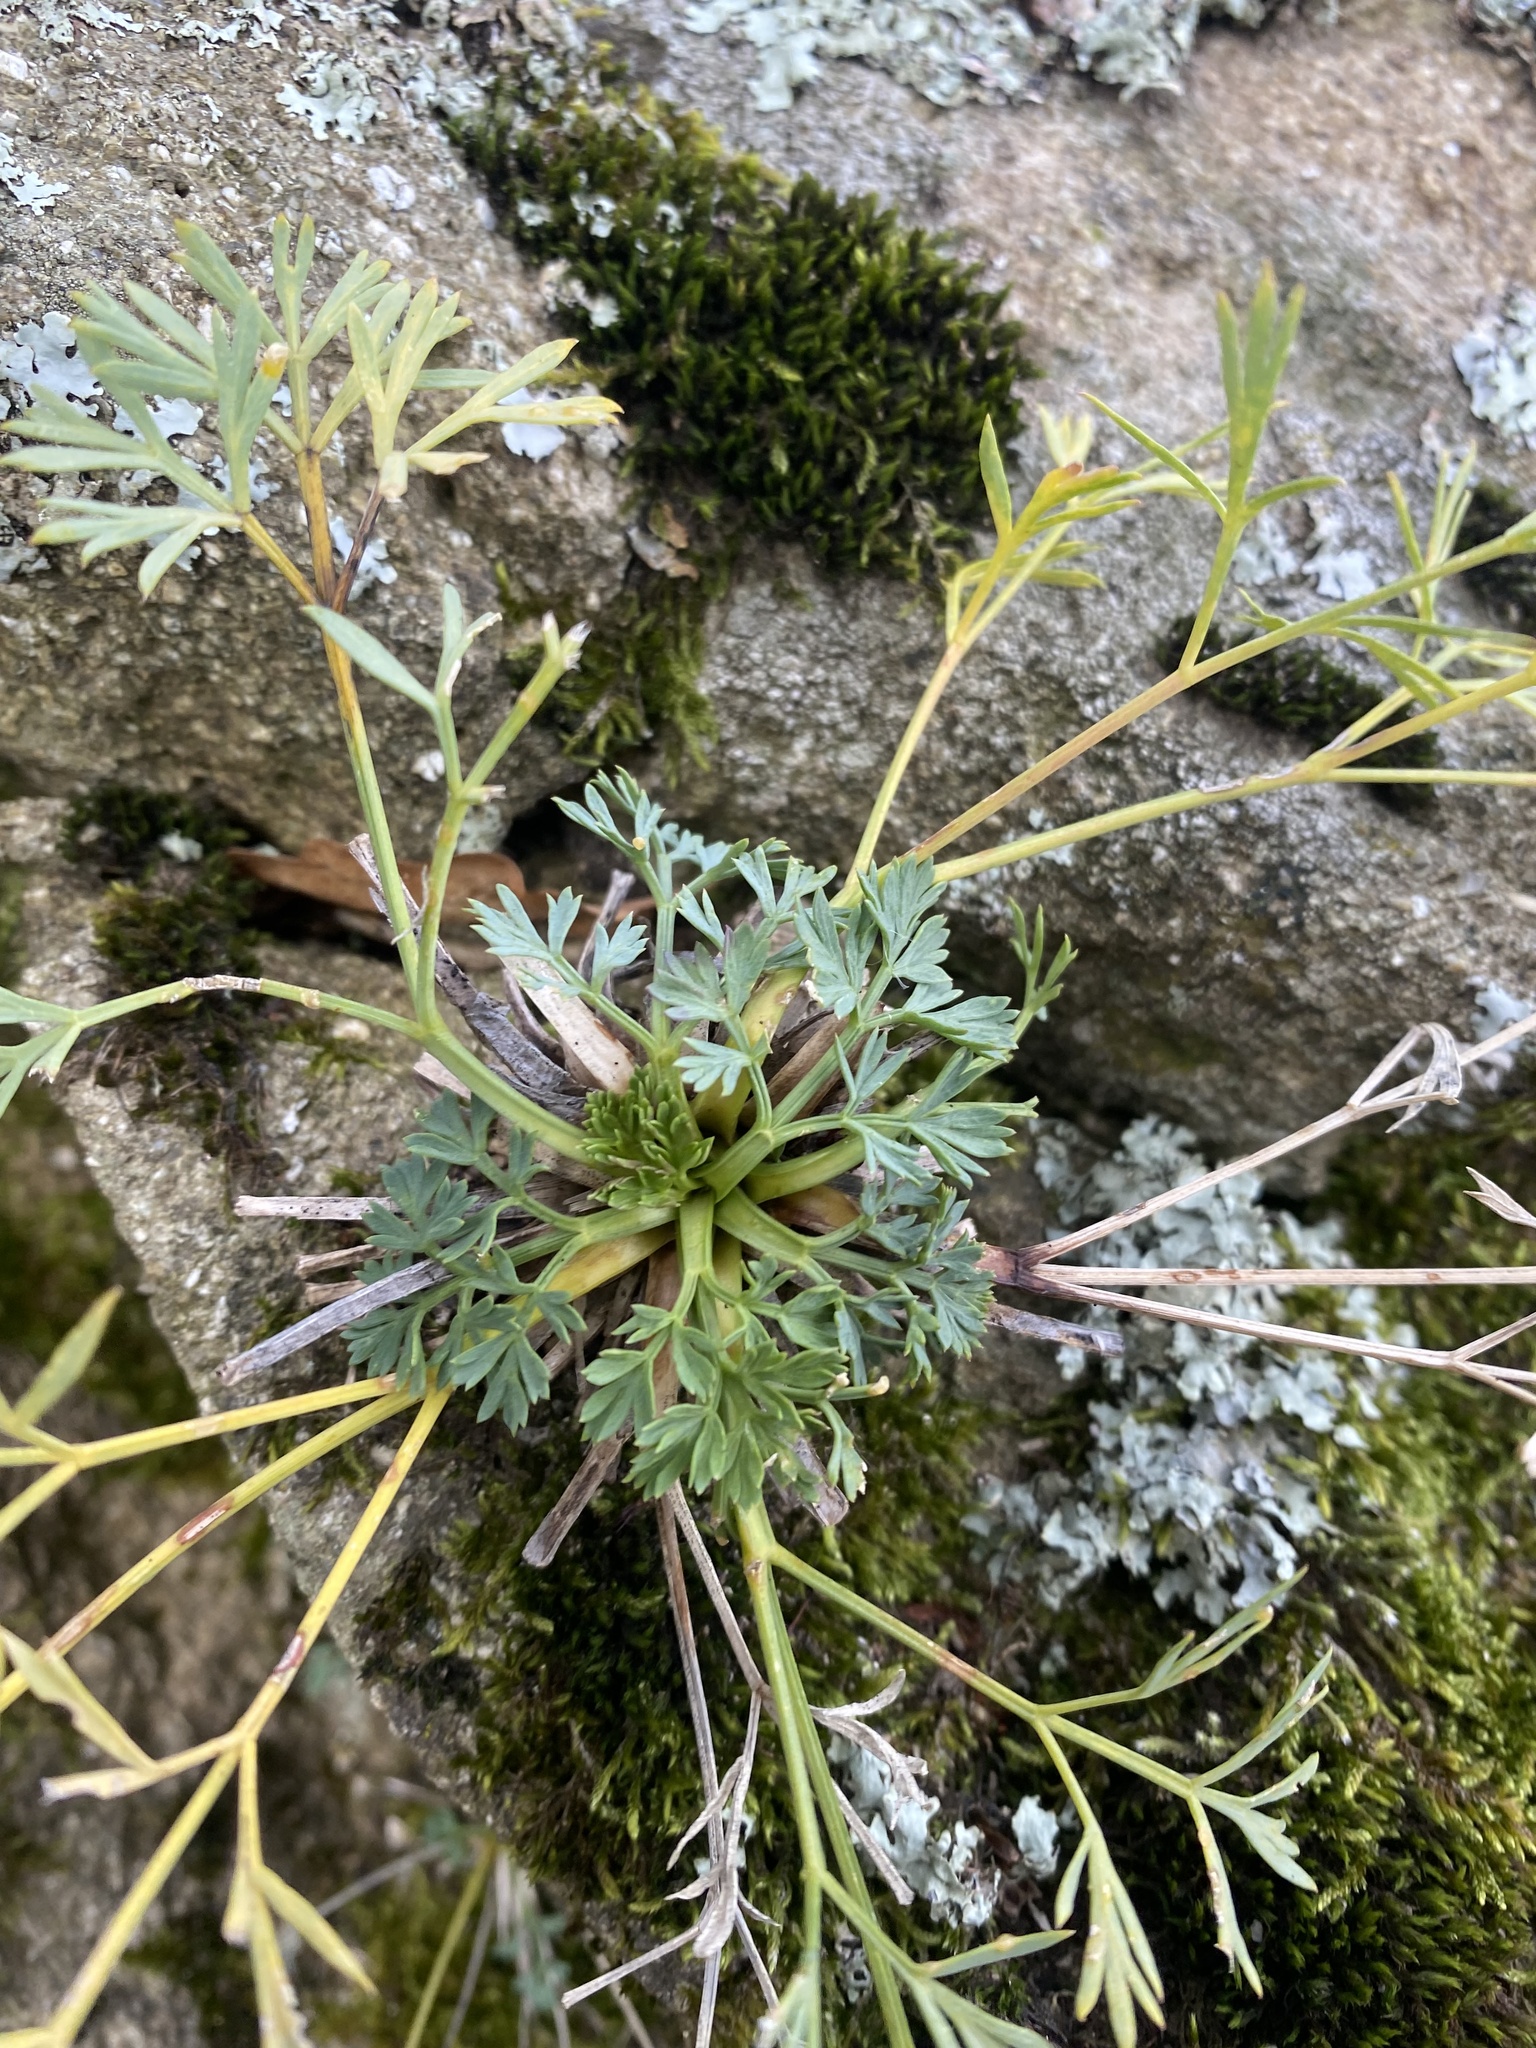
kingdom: Plantae
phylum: Tracheophyta
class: Magnoliopsida
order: Apiales
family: Apiaceae
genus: Hippomarathrum
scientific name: Hippomarathrum petraeum
